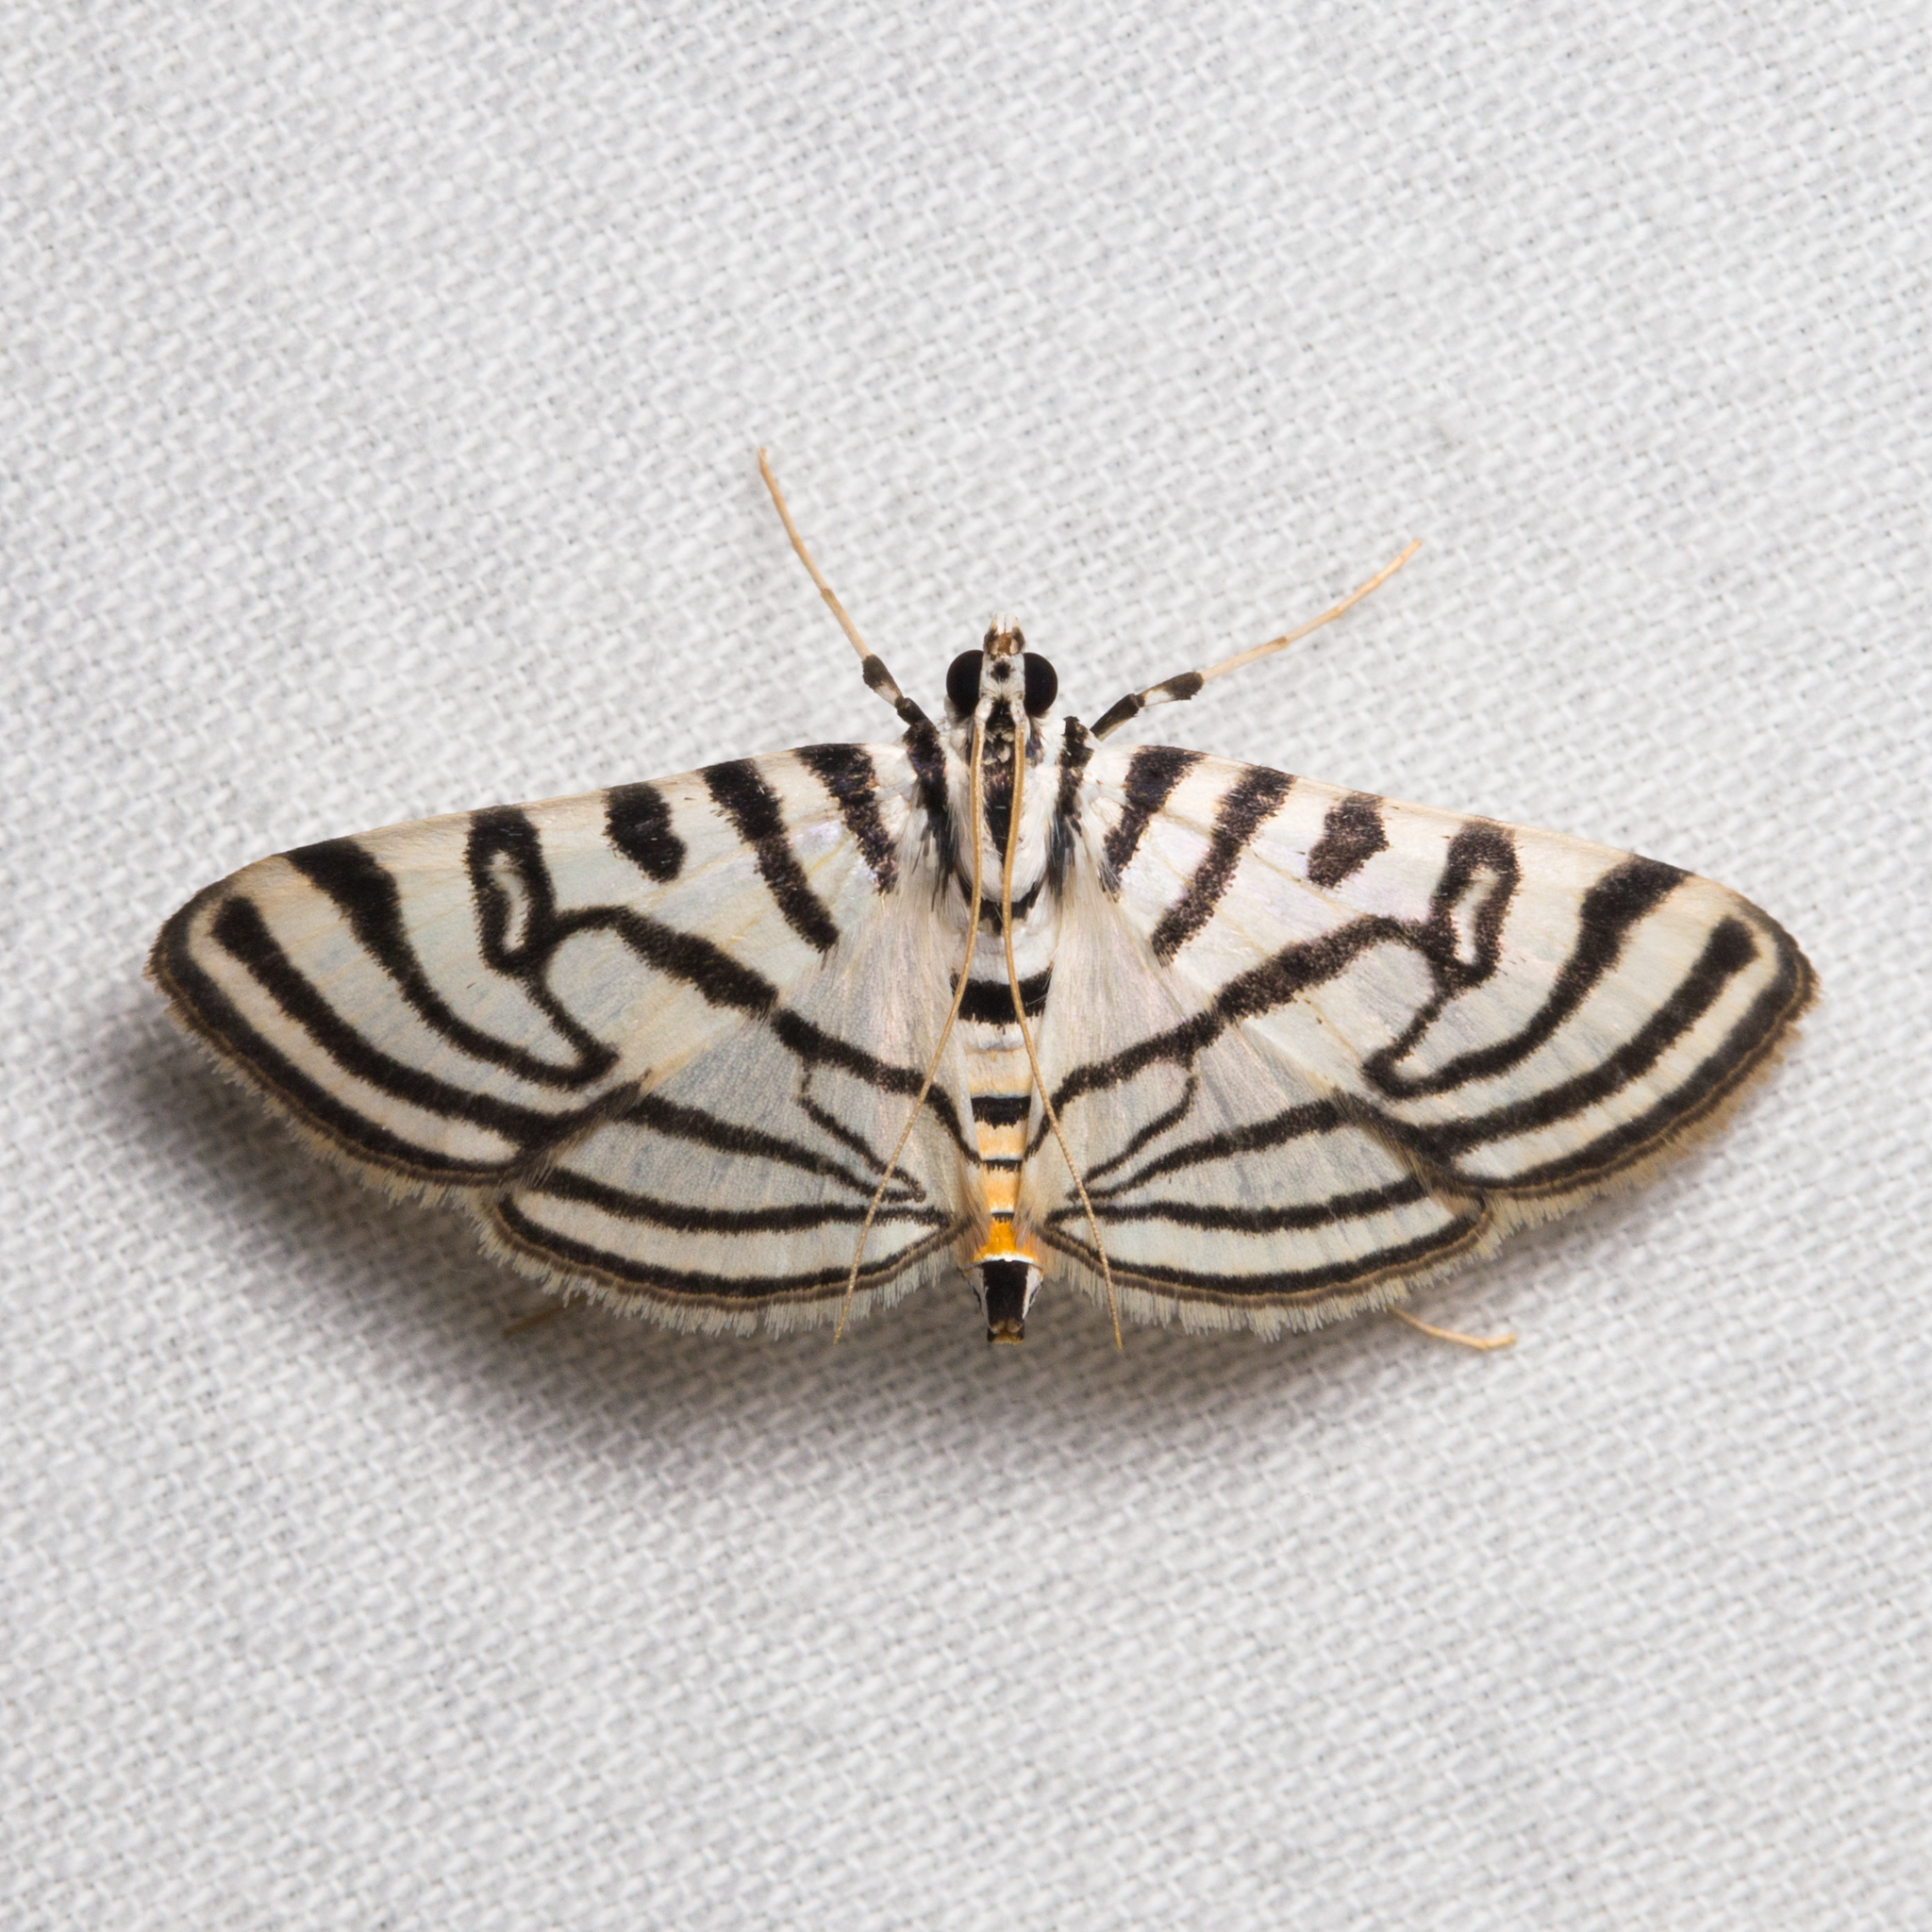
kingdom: Animalia
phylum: Arthropoda
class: Insecta
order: Lepidoptera
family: Crambidae
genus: Conchylodes
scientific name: Conchylodes ovulalis
